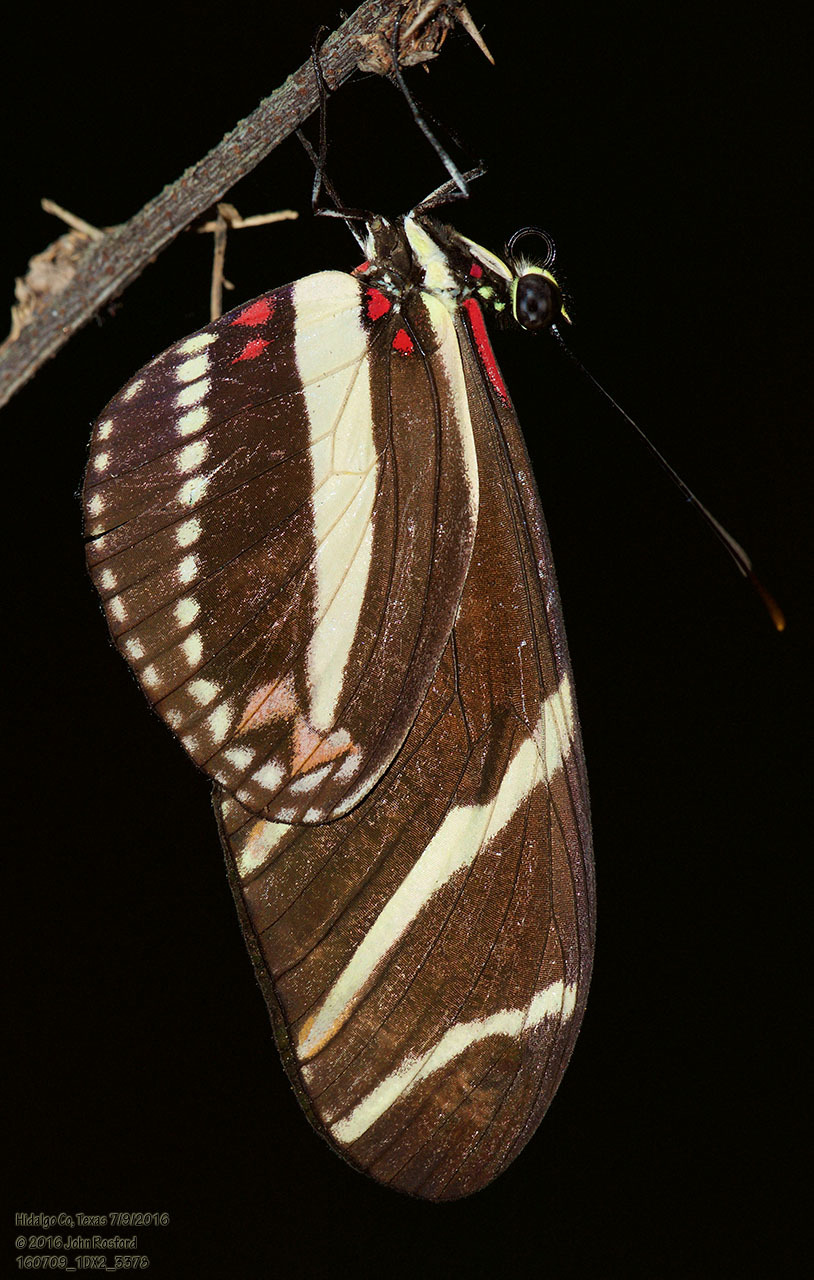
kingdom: Animalia
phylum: Arthropoda
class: Insecta
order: Lepidoptera
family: Nymphalidae
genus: Heliconius
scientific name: Heliconius charithonia
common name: Zebra long wing
